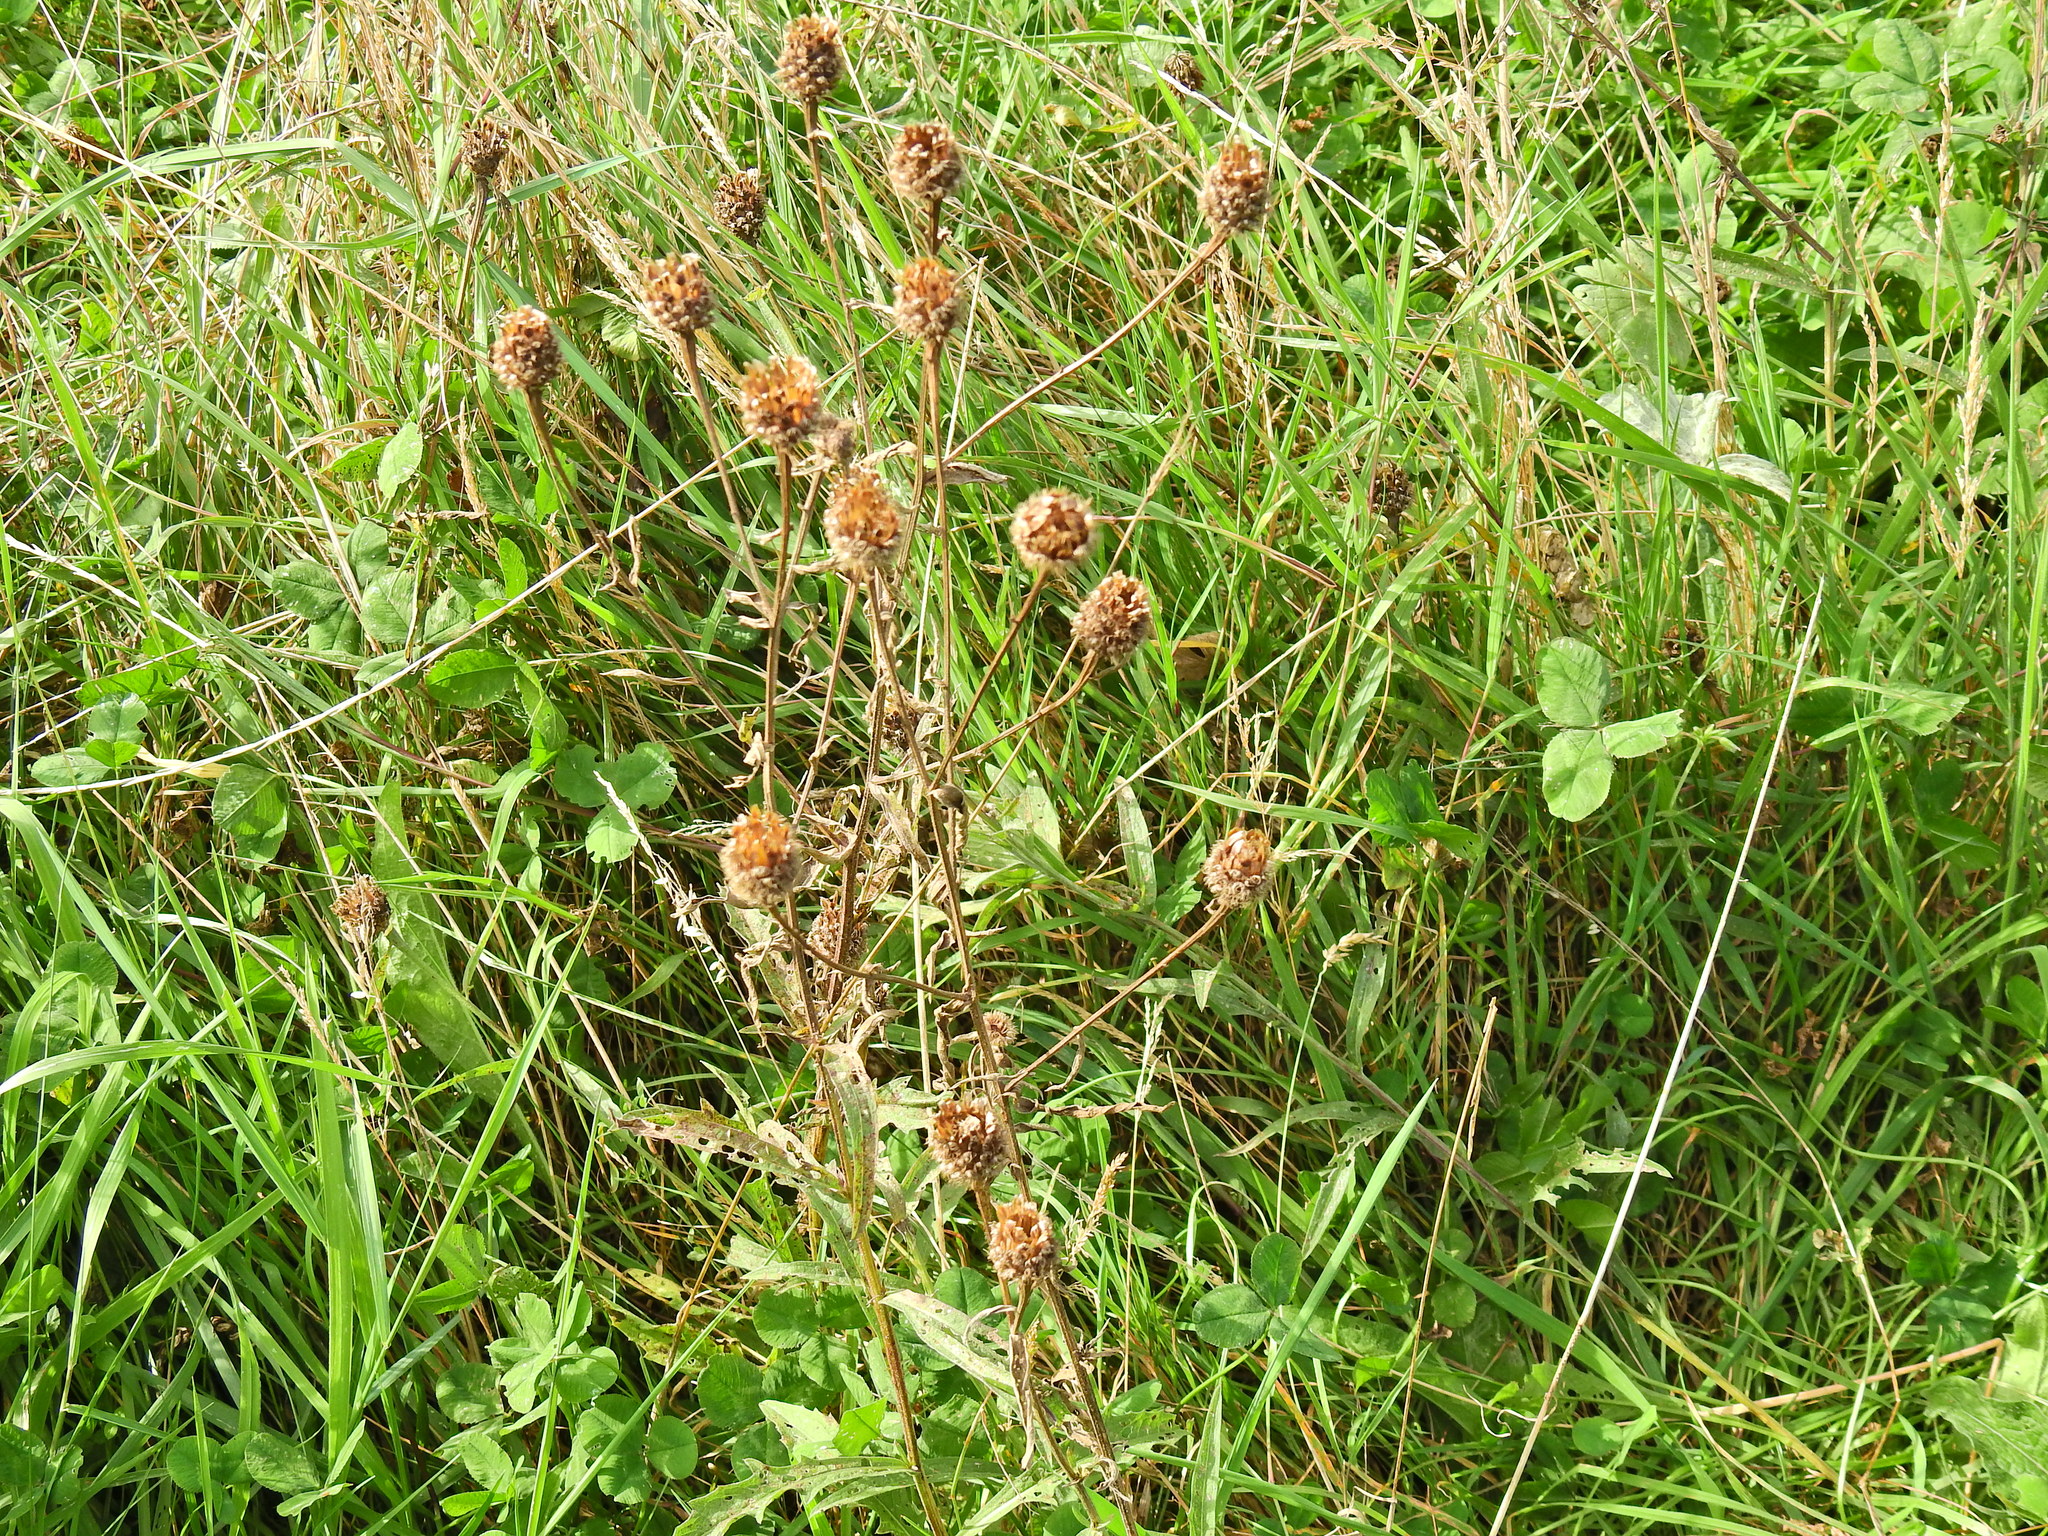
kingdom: Plantae
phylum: Tracheophyta
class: Magnoliopsida
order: Asterales
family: Asteraceae
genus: Centaurea
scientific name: Centaurea nigra
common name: Lesser knapweed
